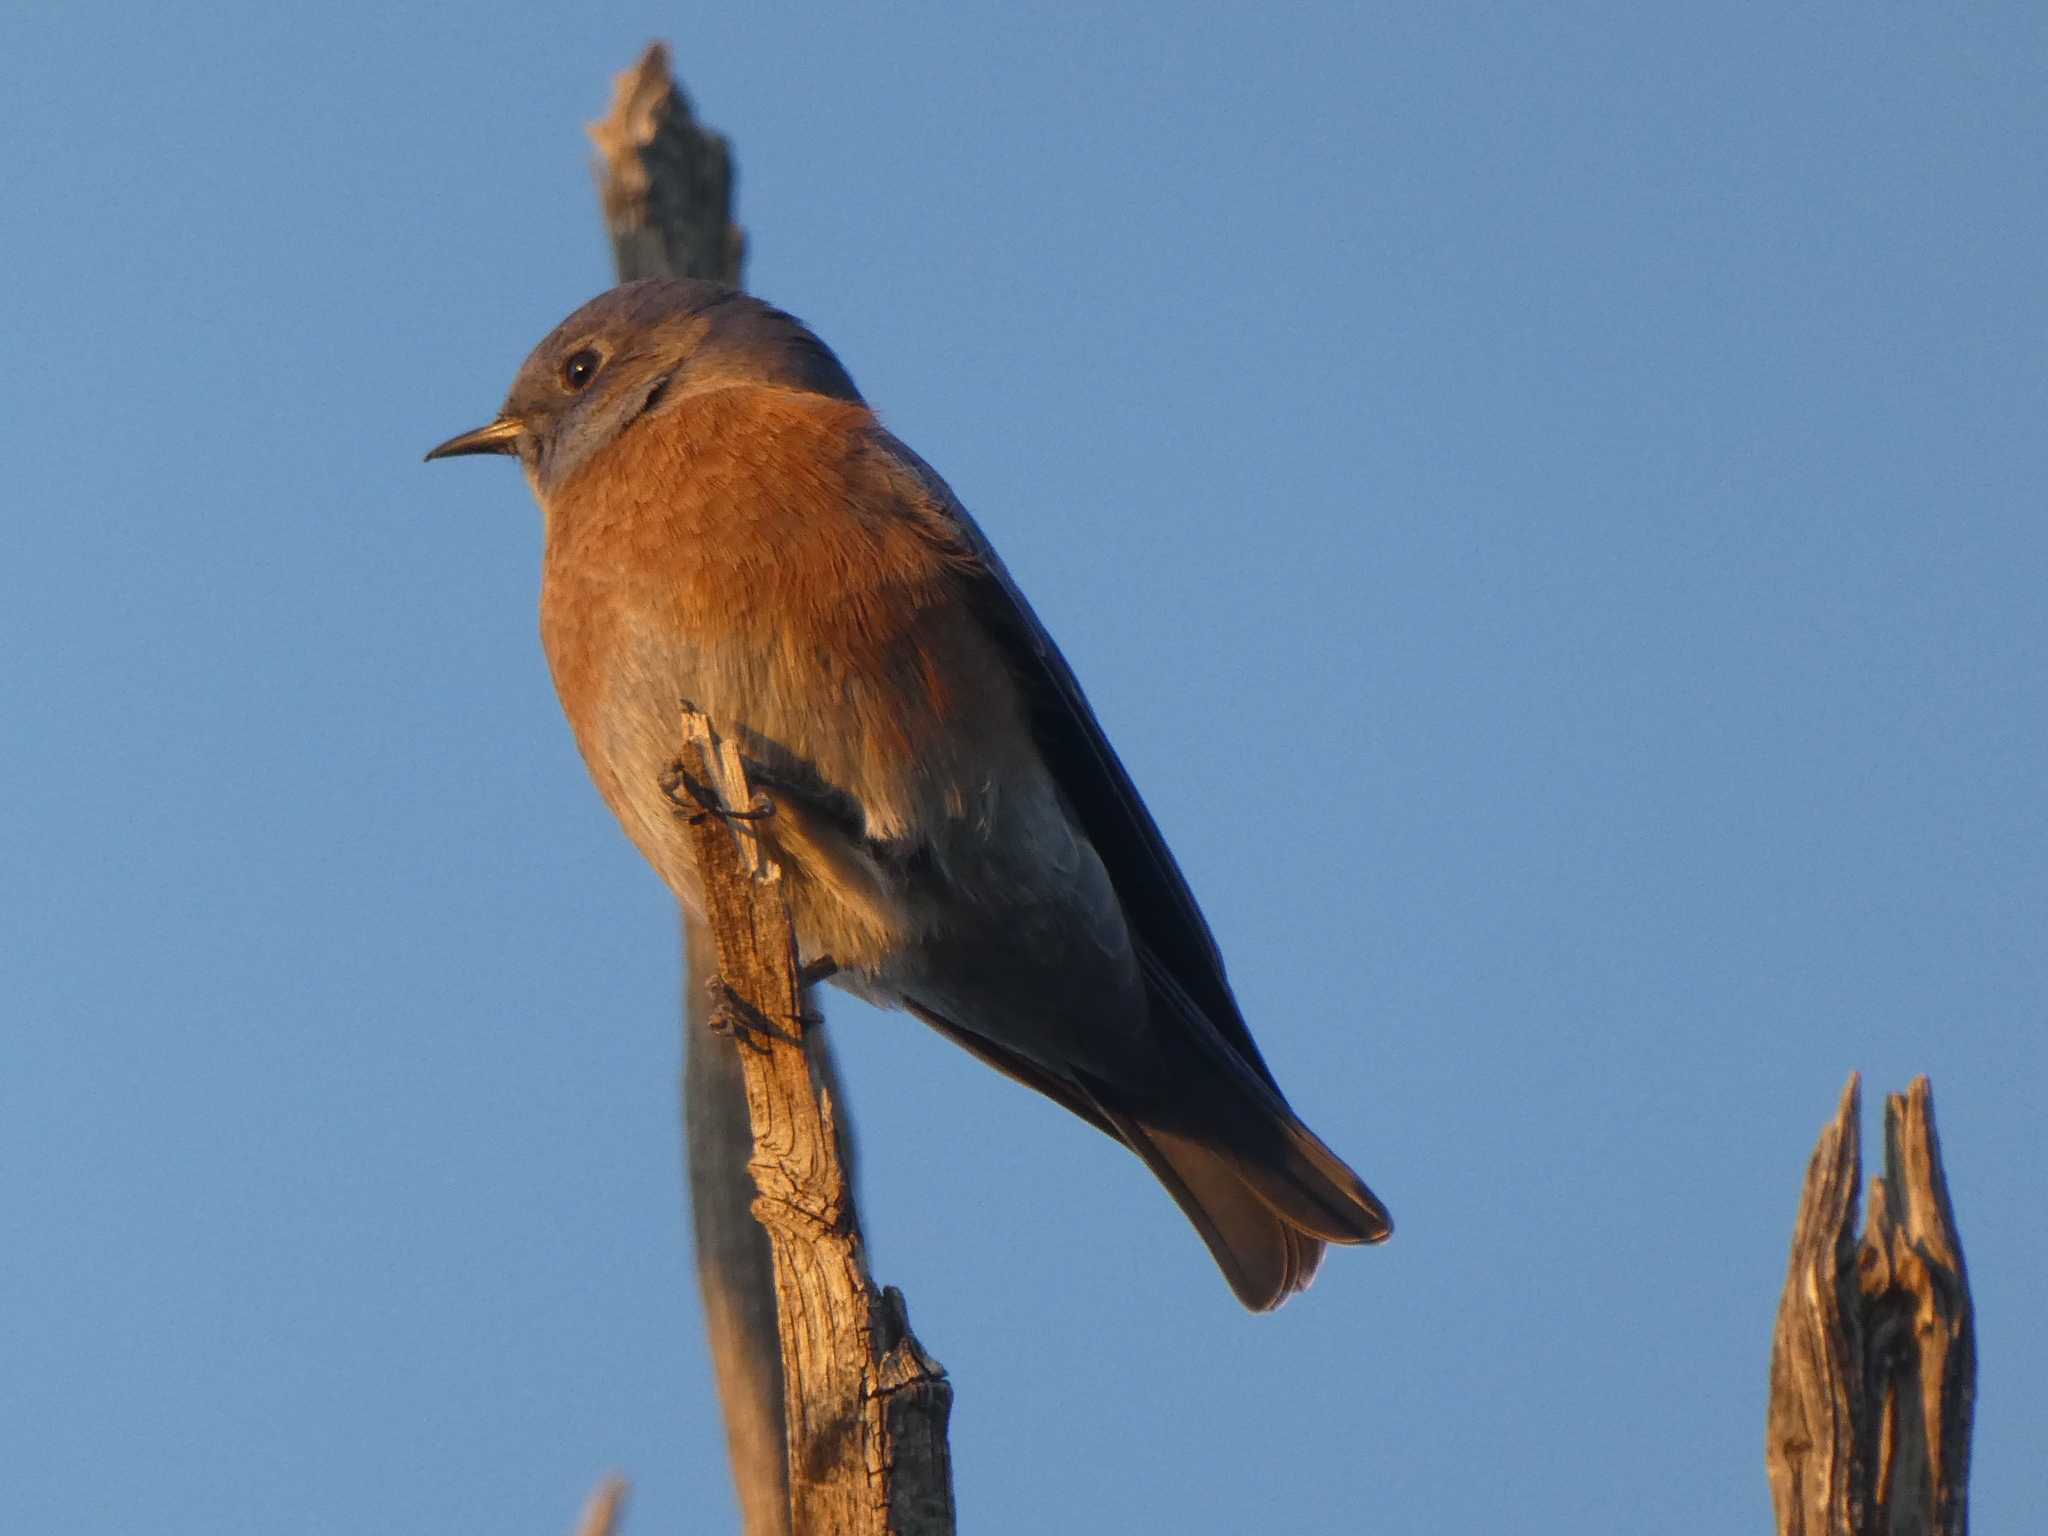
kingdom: Animalia
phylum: Chordata
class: Aves
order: Passeriformes
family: Turdidae
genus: Sialia
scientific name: Sialia mexicana
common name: Western bluebird
